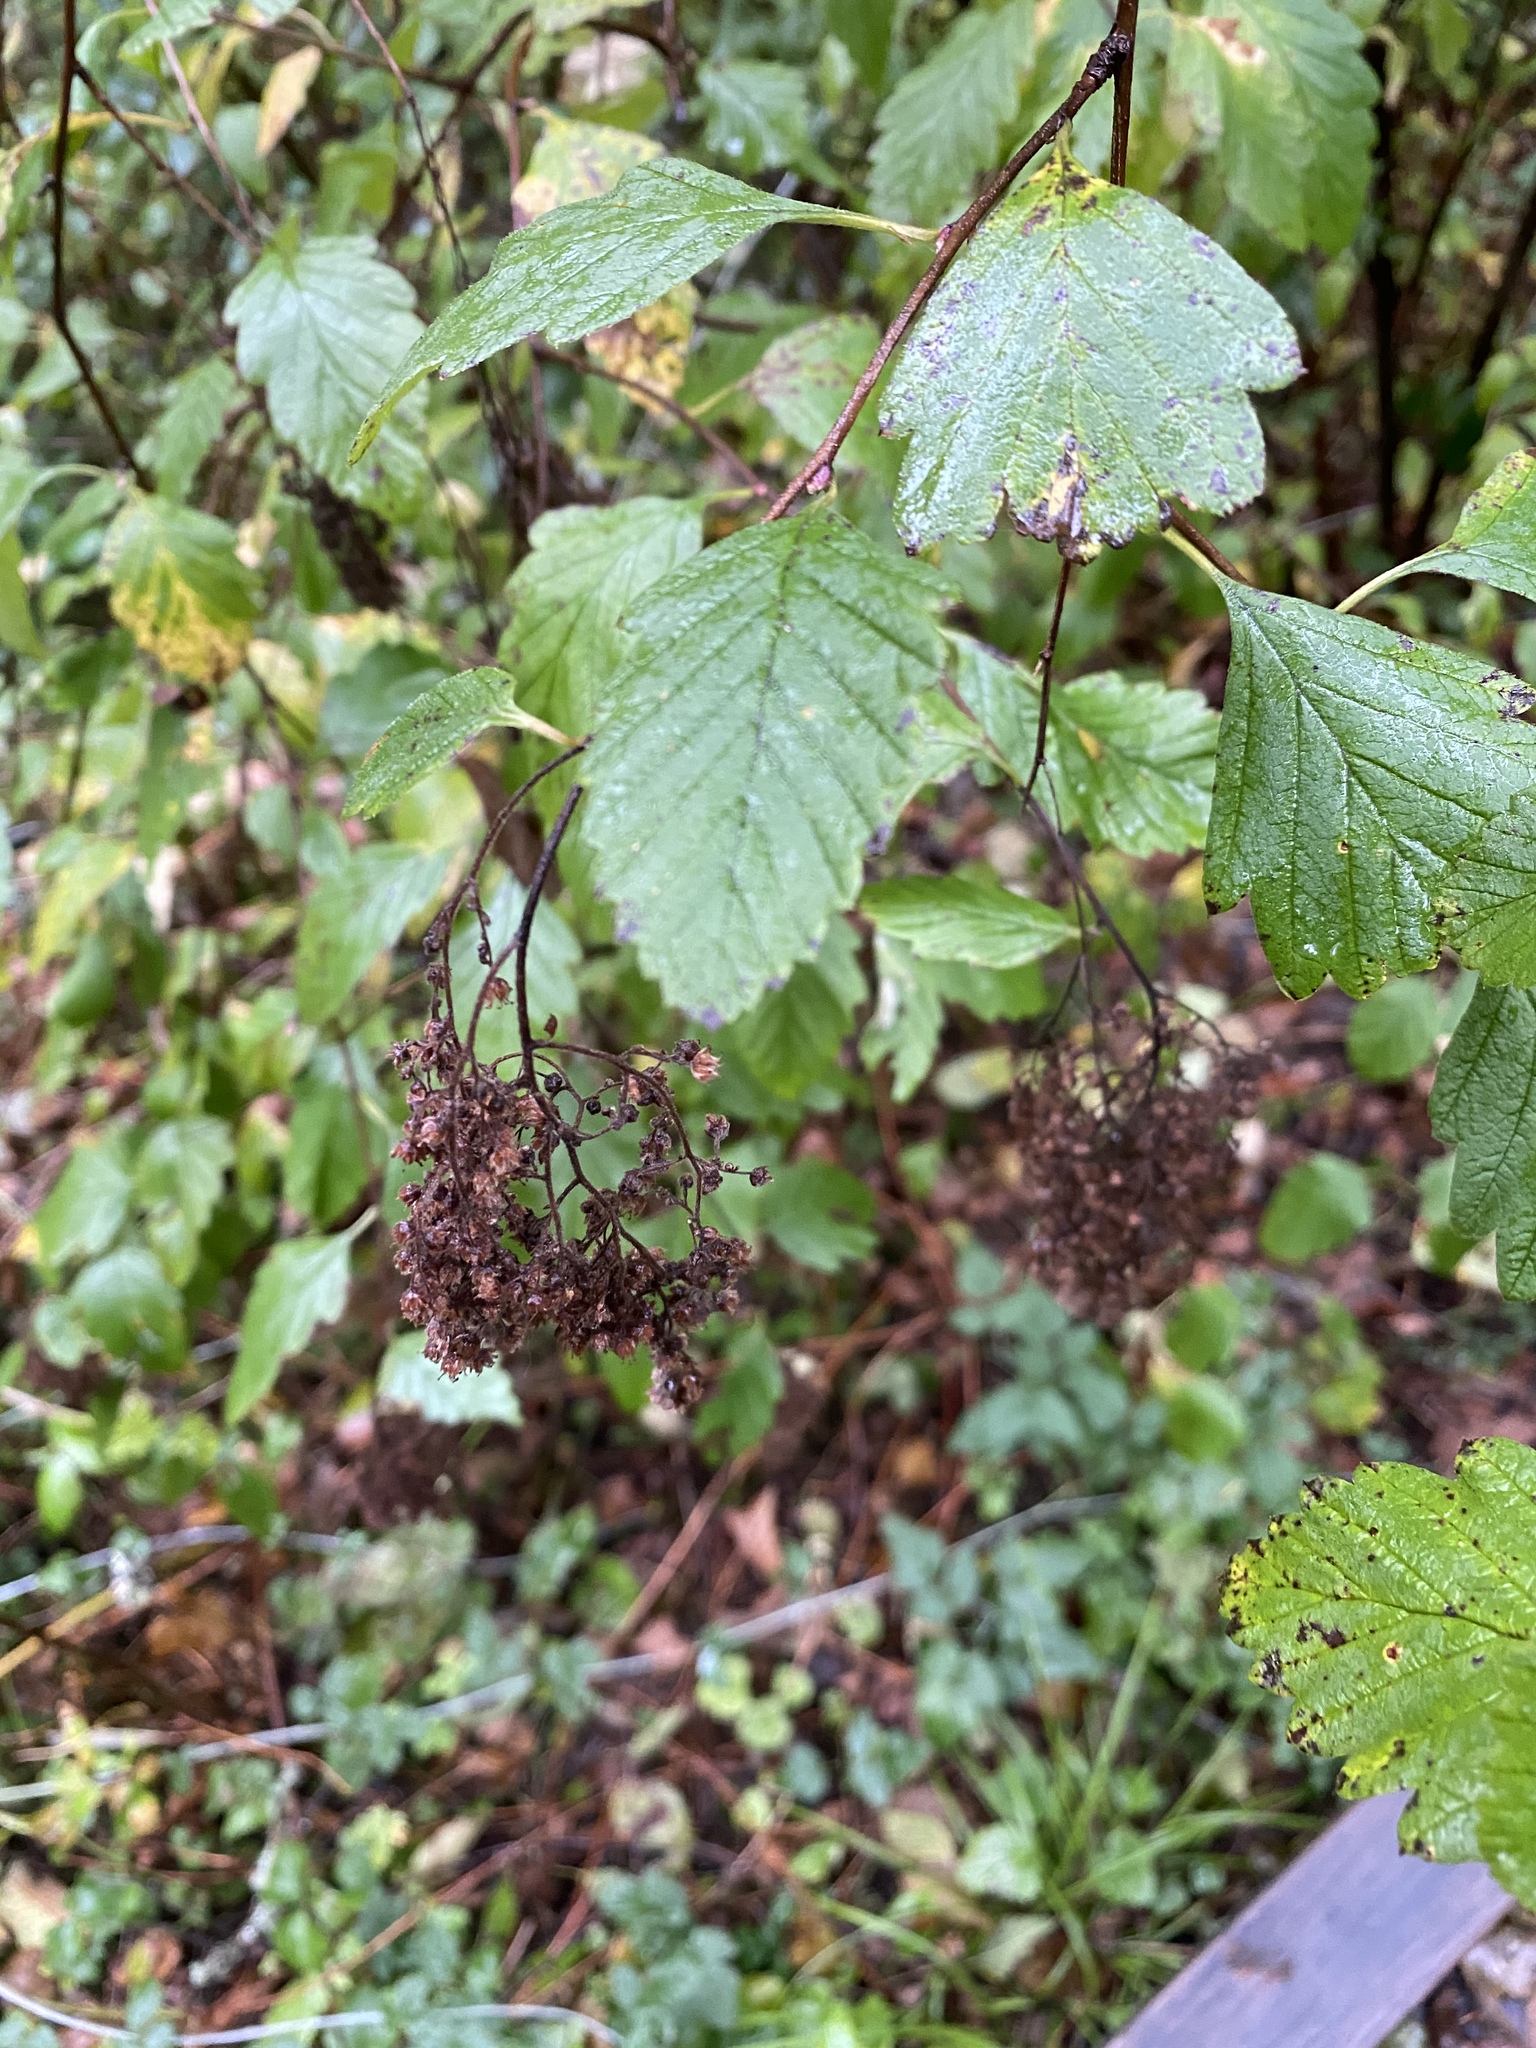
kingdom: Plantae
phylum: Tracheophyta
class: Magnoliopsida
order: Rosales
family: Rosaceae
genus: Holodiscus
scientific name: Holodiscus discolor
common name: Oceanspray
